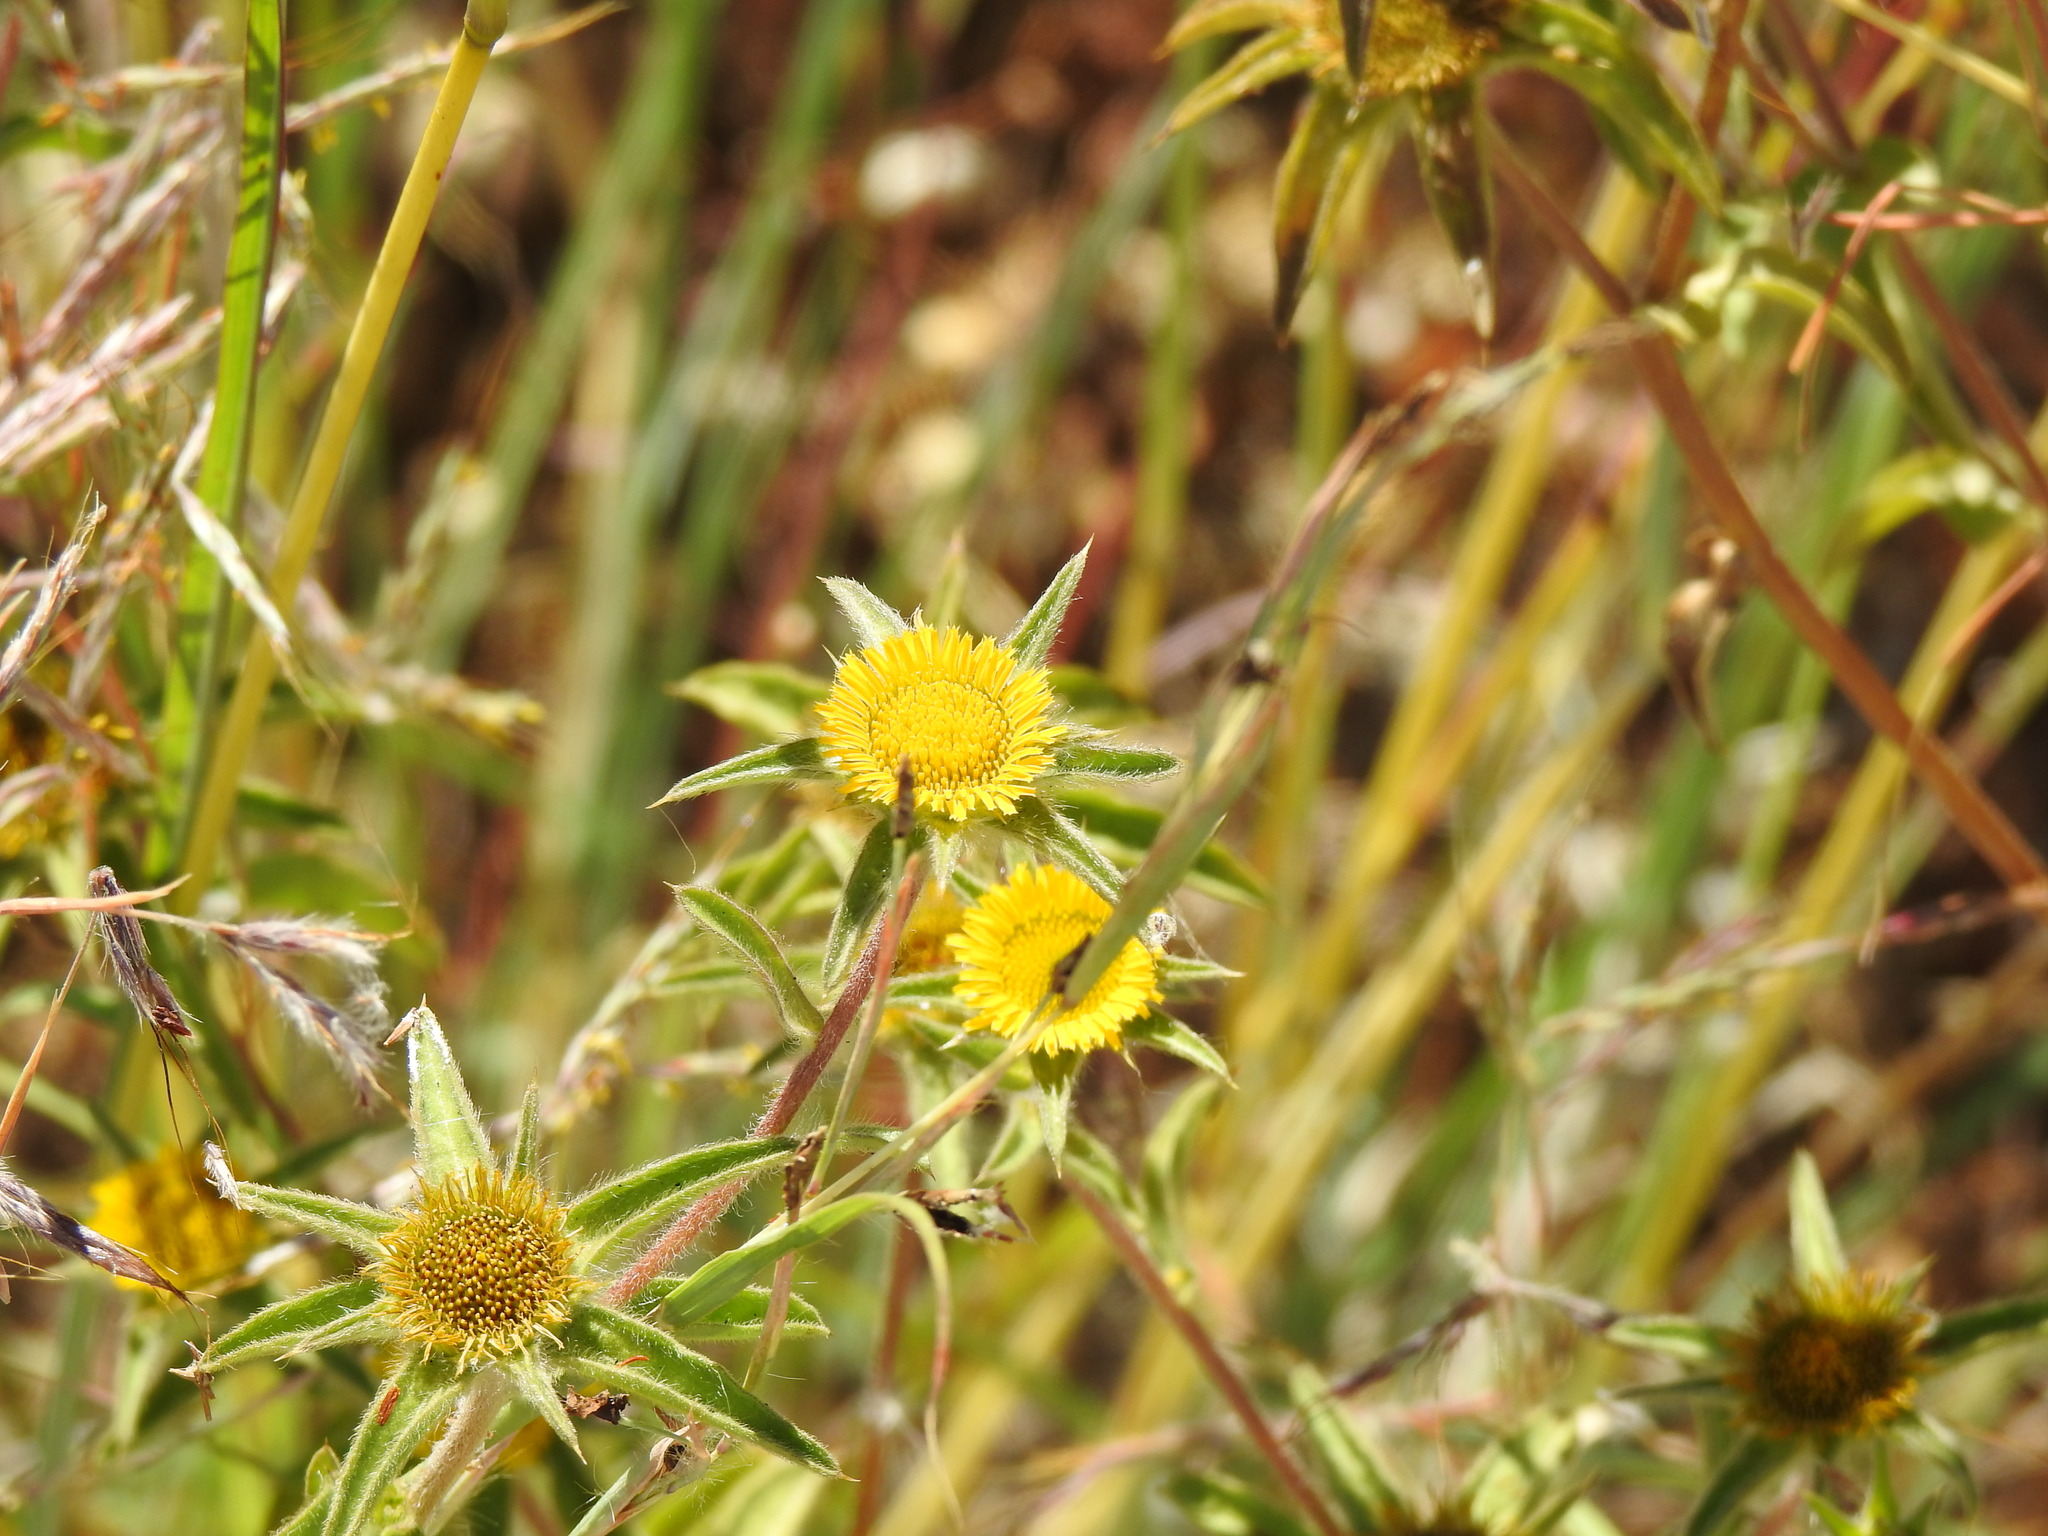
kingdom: Plantae
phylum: Tracheophyta
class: Magnoliopsida
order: Asterales
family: Asteraceae
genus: Pallenis
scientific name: Pallenis spinosa
